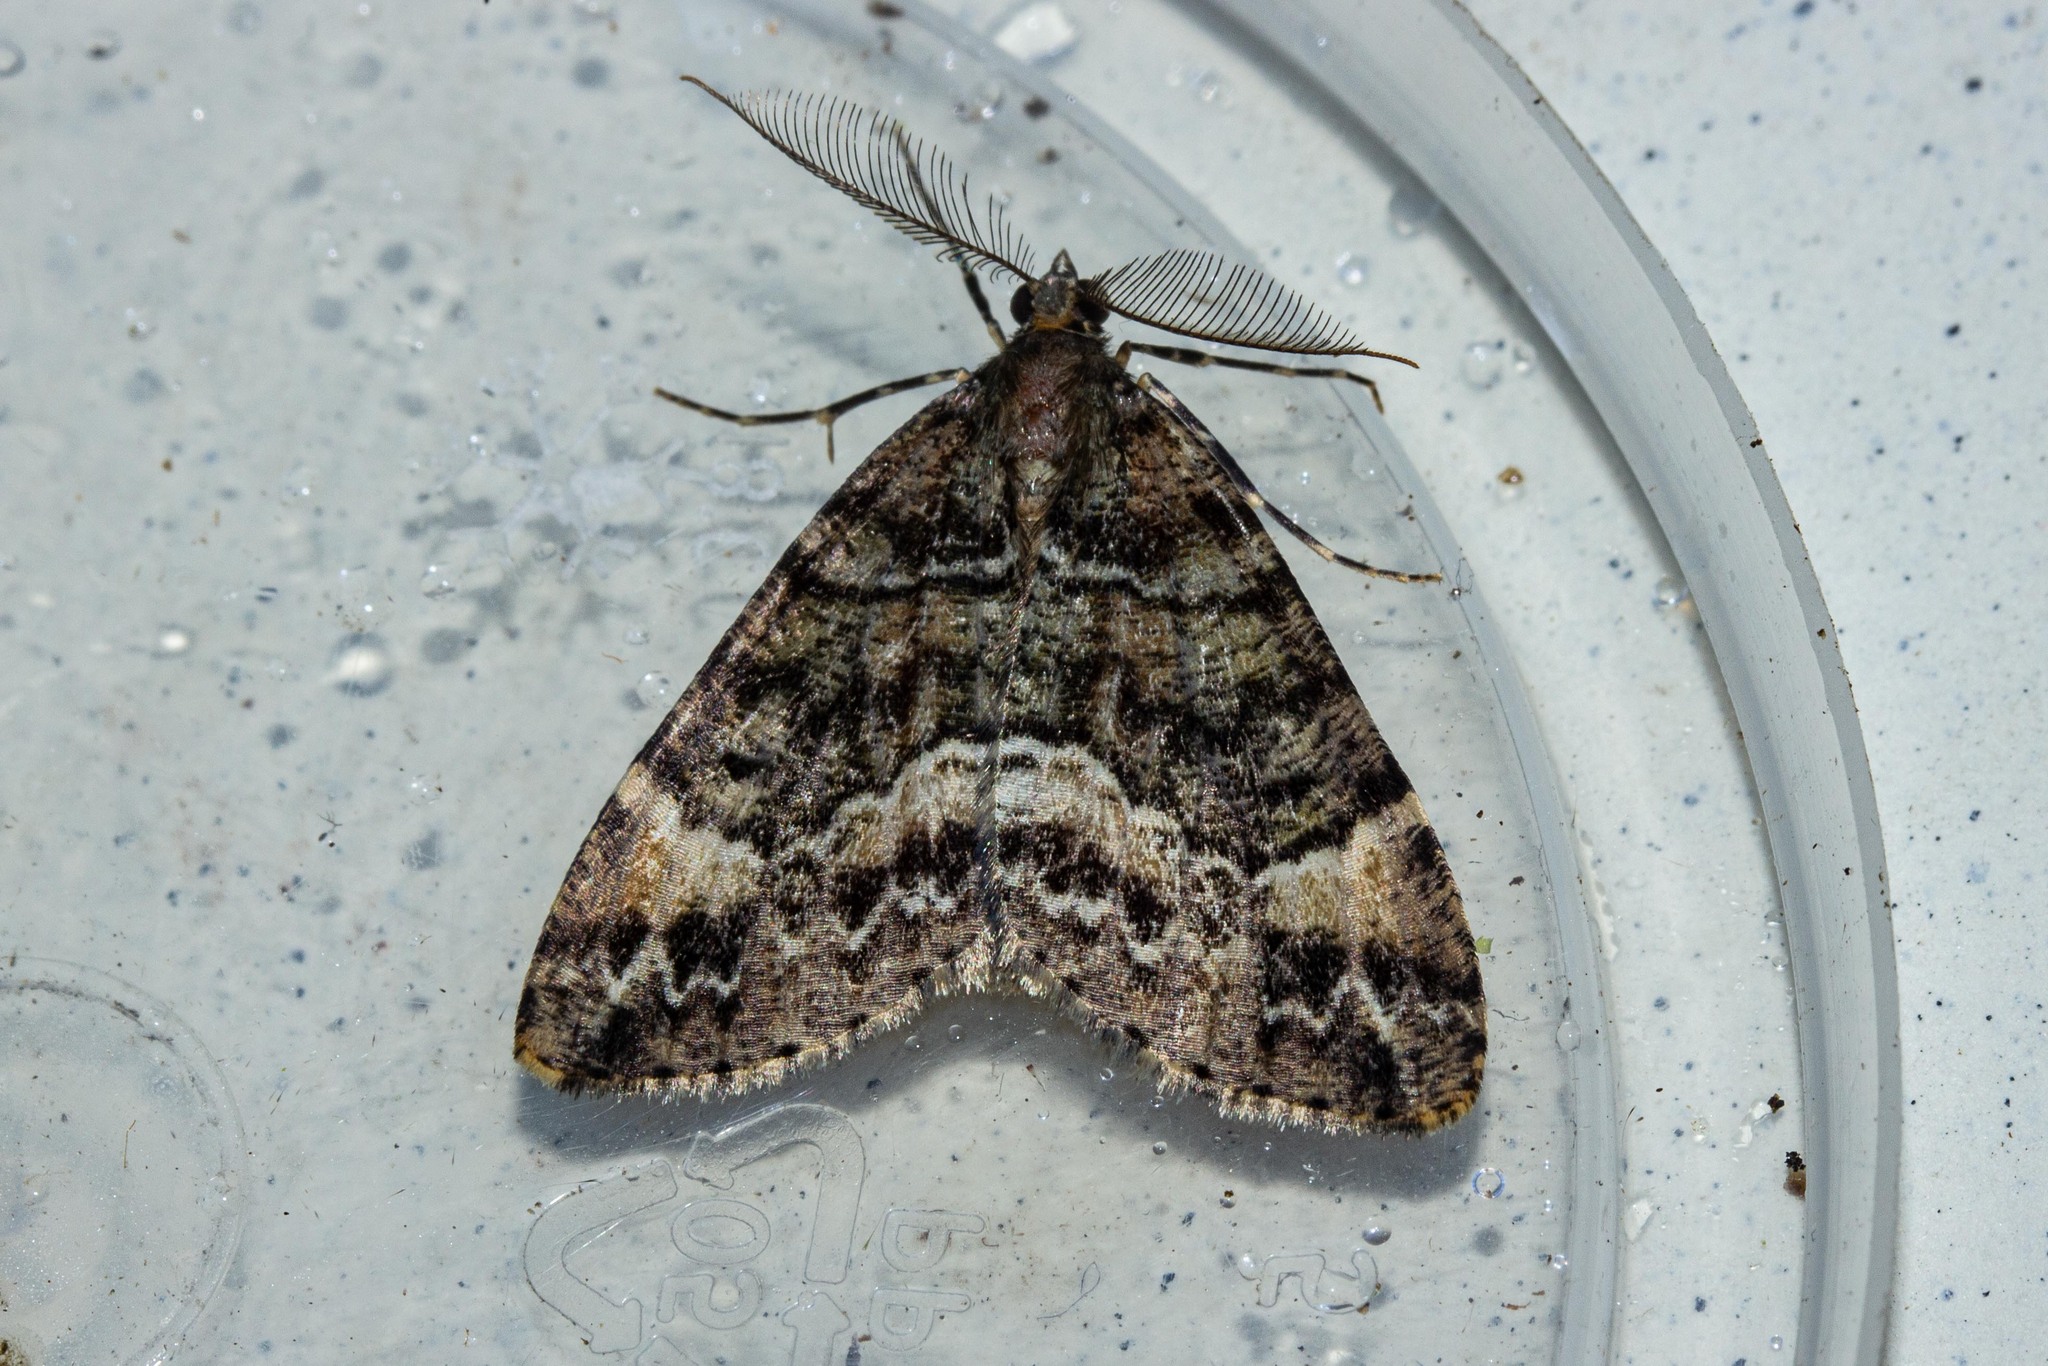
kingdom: Animalia
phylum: Arthropoda
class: Insecta
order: Lepidoptera
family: Geometridae
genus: Pseudocoremia
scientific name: Pseudocoremia productata
